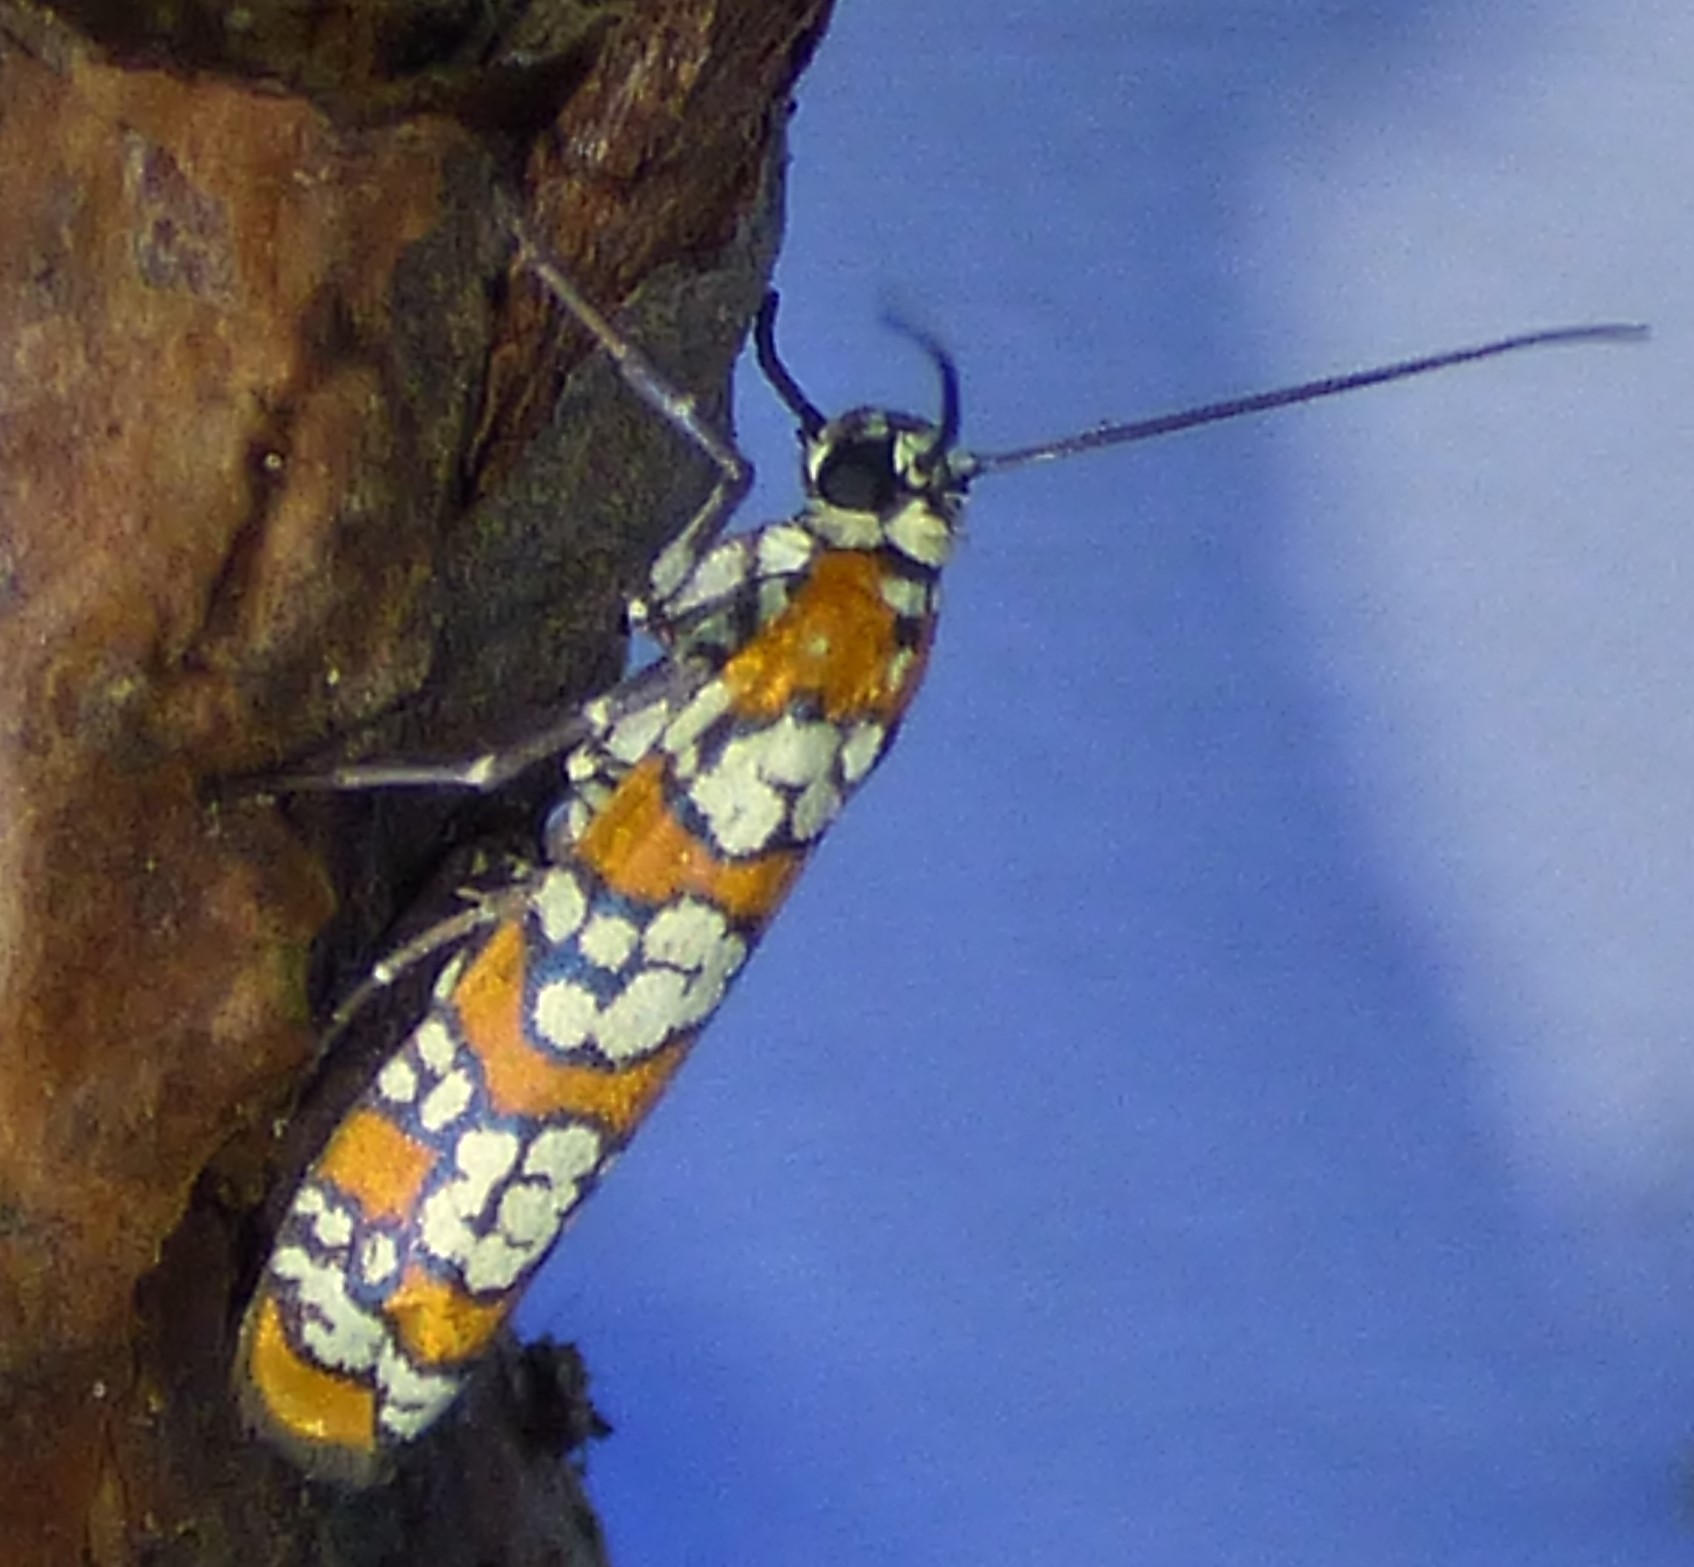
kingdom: Animalia
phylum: Arthropoda
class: Insecta
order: Lepidoptera
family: Attevidae
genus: Atteva
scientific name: Atteva punctella
